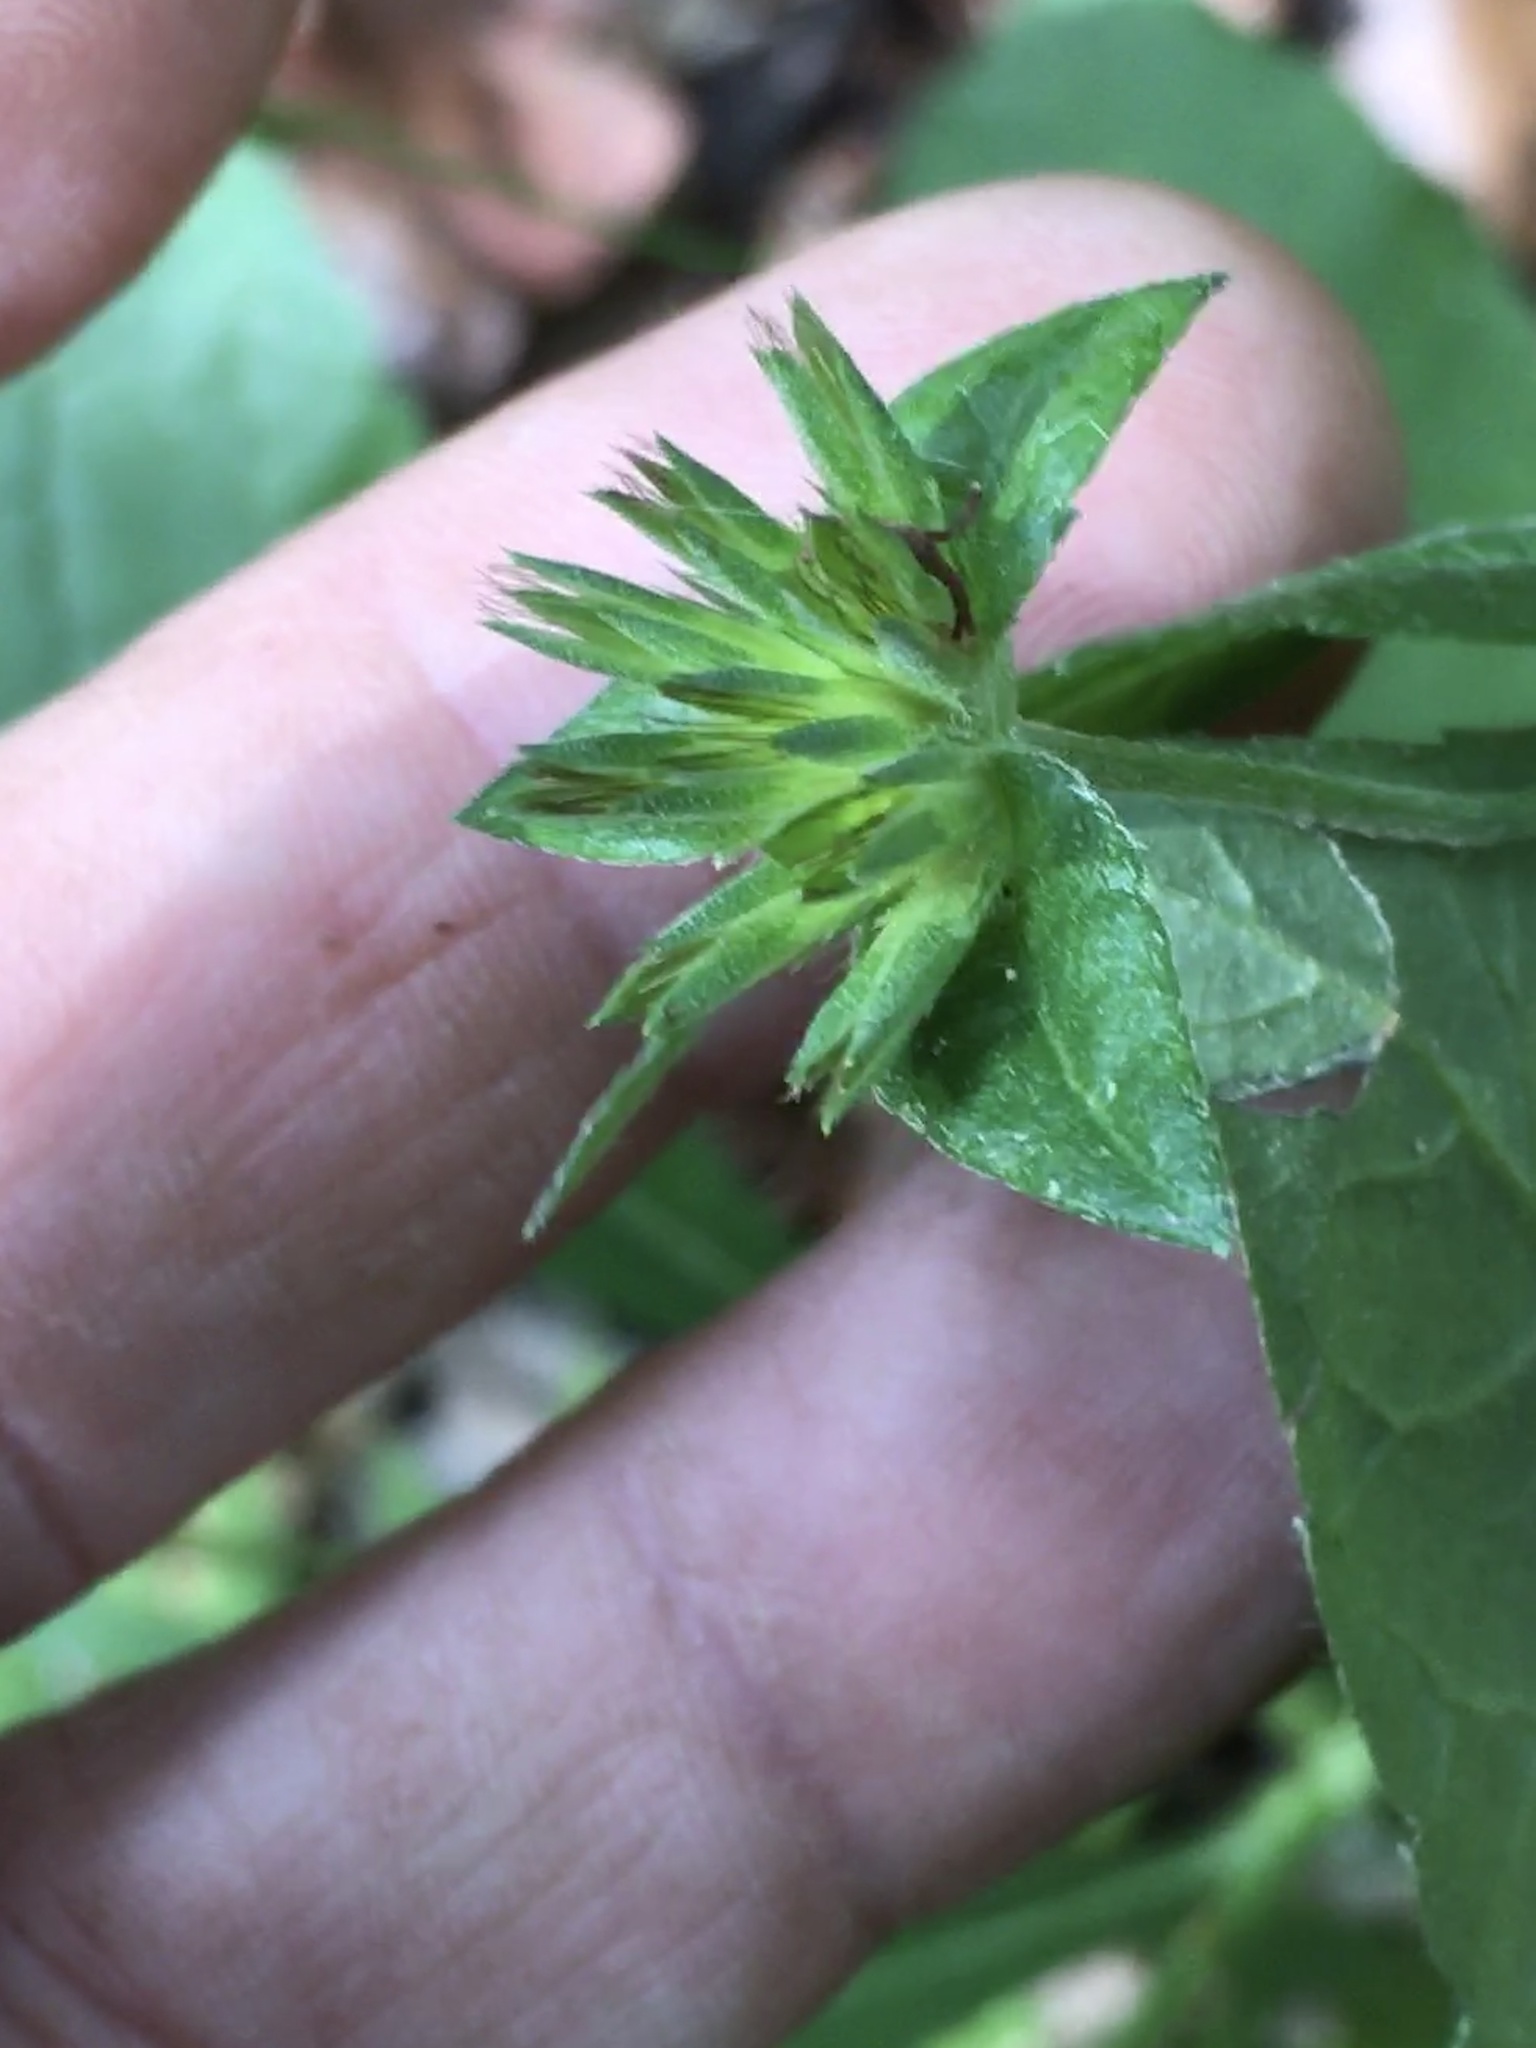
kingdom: Plantae
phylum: Tracheophyta
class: Magnoliopsida
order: Asterales
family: Asteraceae
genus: Elephantopus
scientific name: Elephantopus carolinianus
